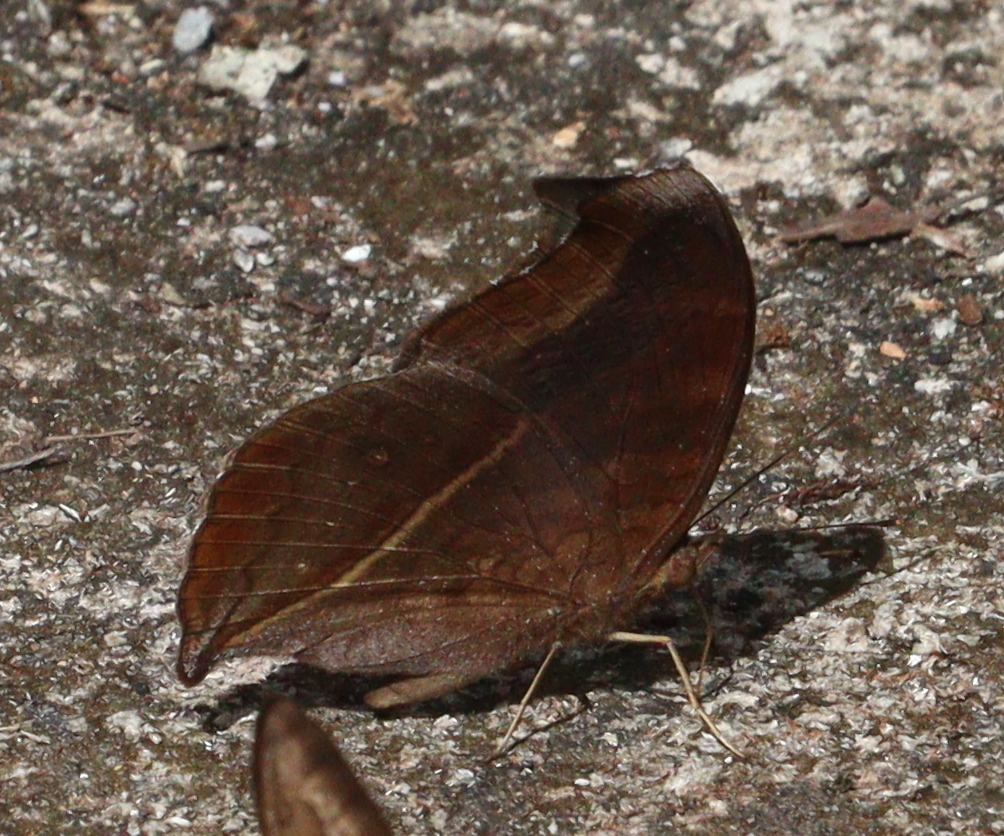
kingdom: Animalia
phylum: Arthropoda
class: Insecta
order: Lepidoptera
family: Nymphalidae
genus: Junonia
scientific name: Junonia iphita
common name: Chocolate pansy
